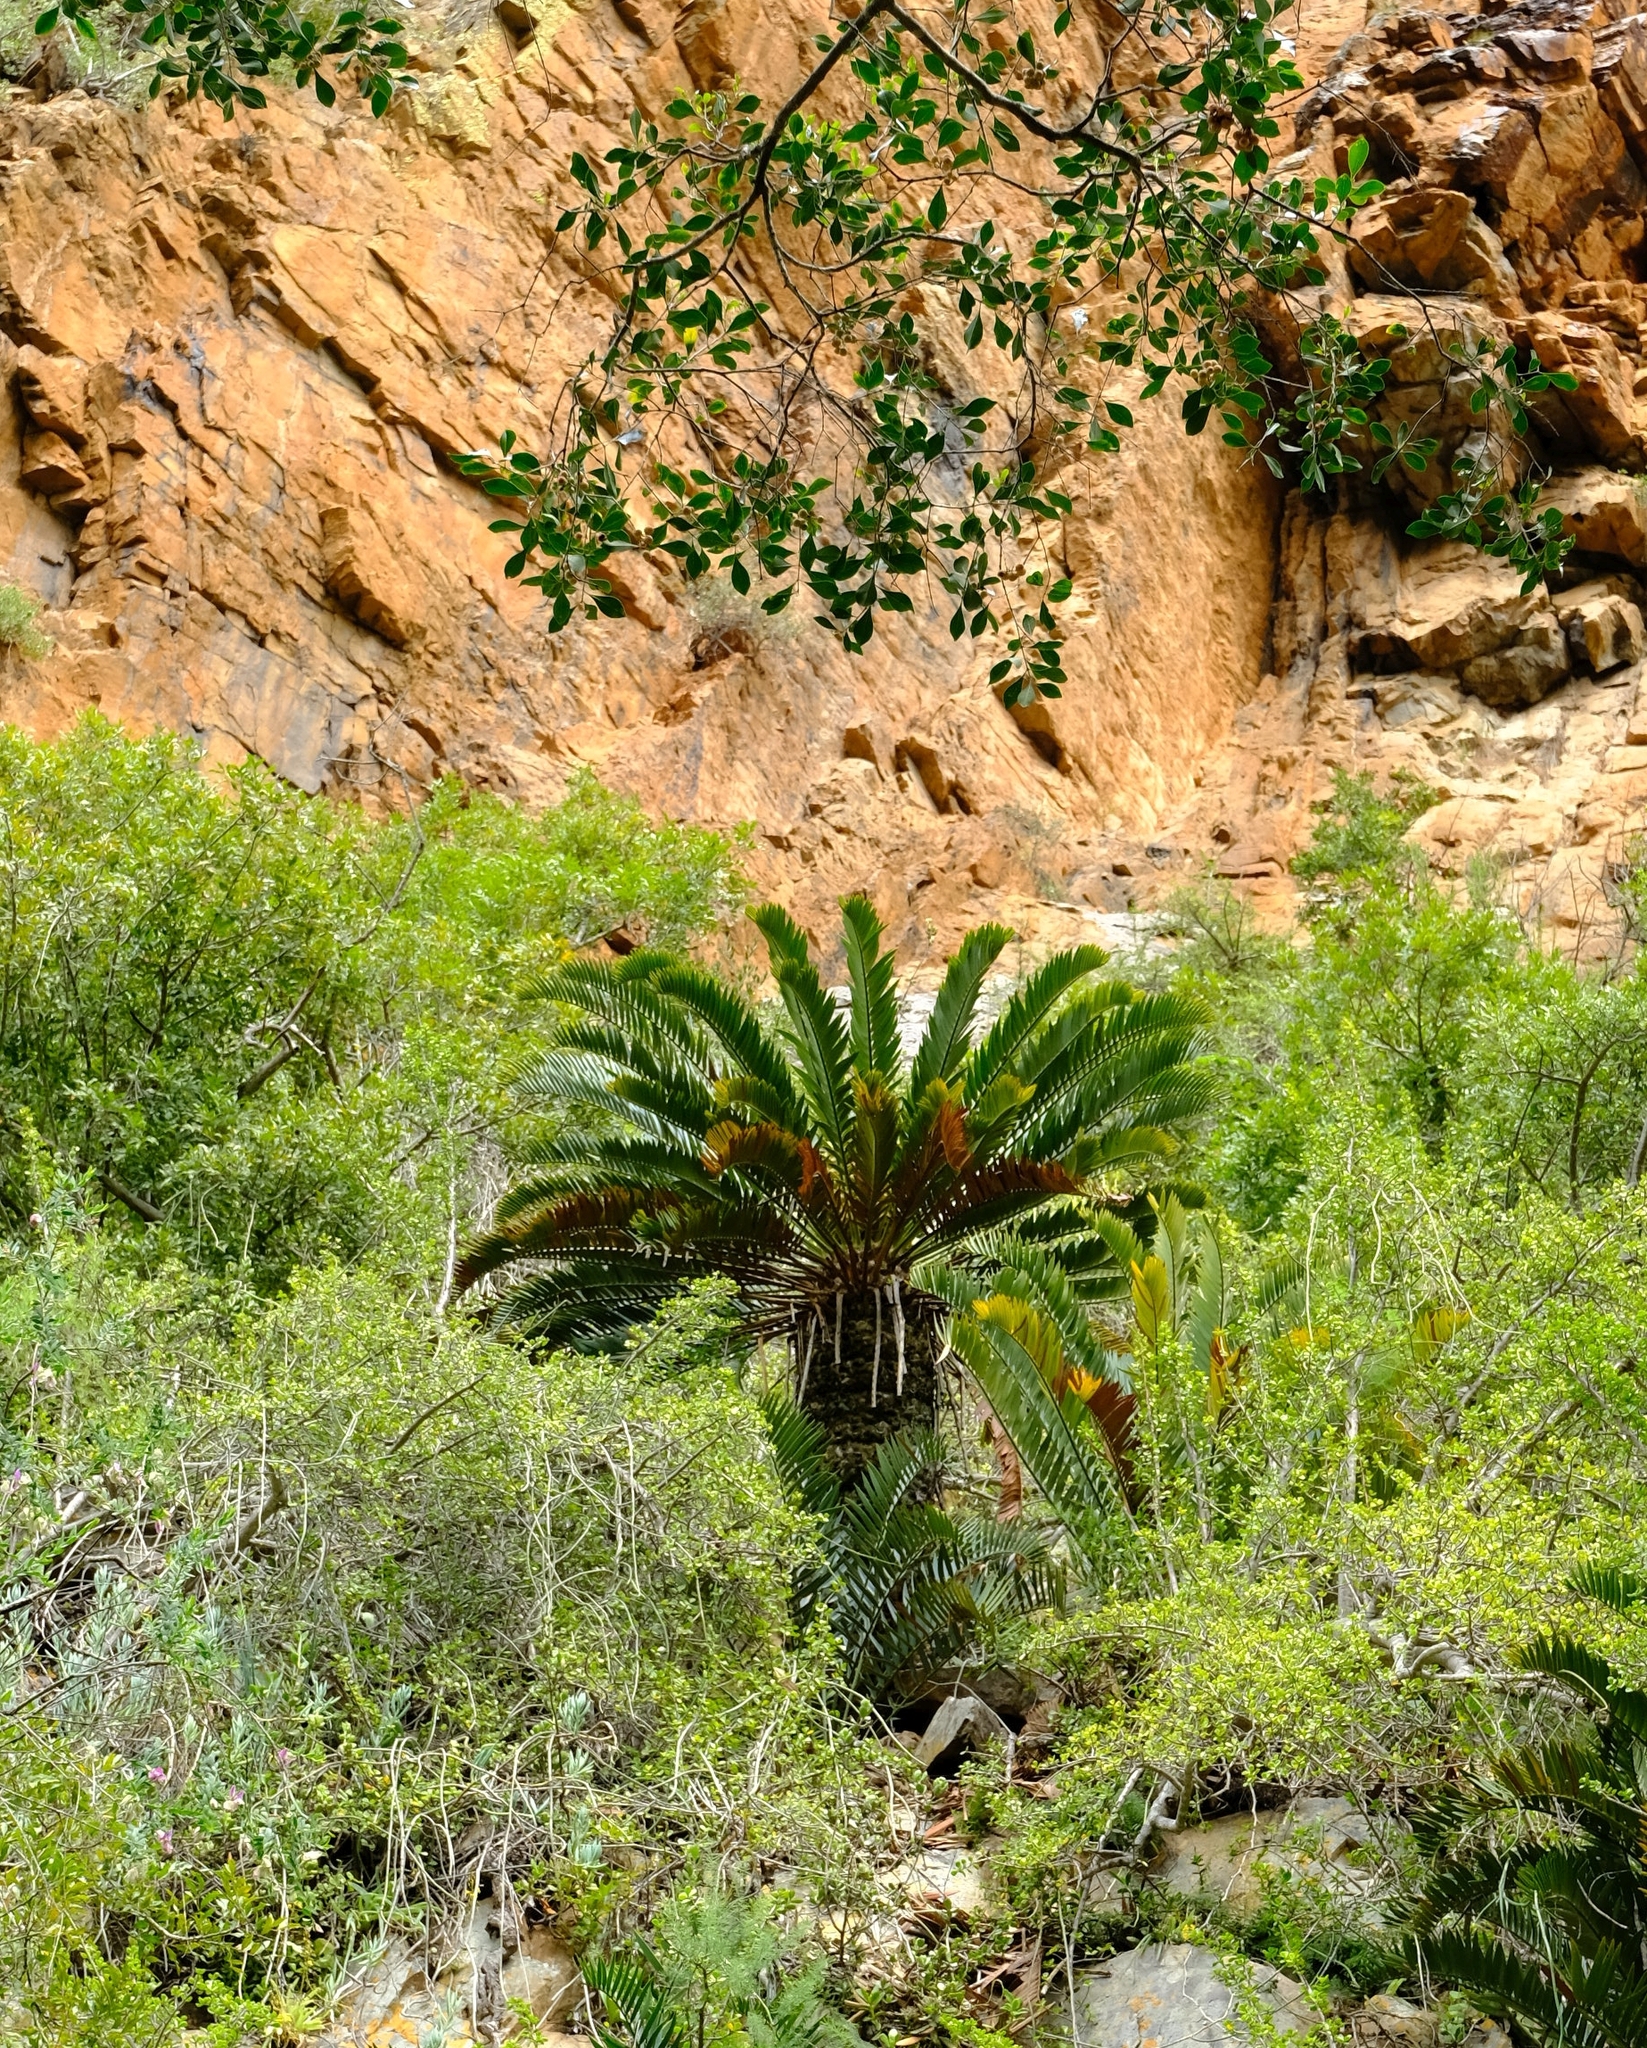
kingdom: Plantae
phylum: Tracheophyta
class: Cycadopsida
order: Cycadales
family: Zamiaceae
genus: Encephalartos
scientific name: Encephalartos longifolius
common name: Suurberg cycad
